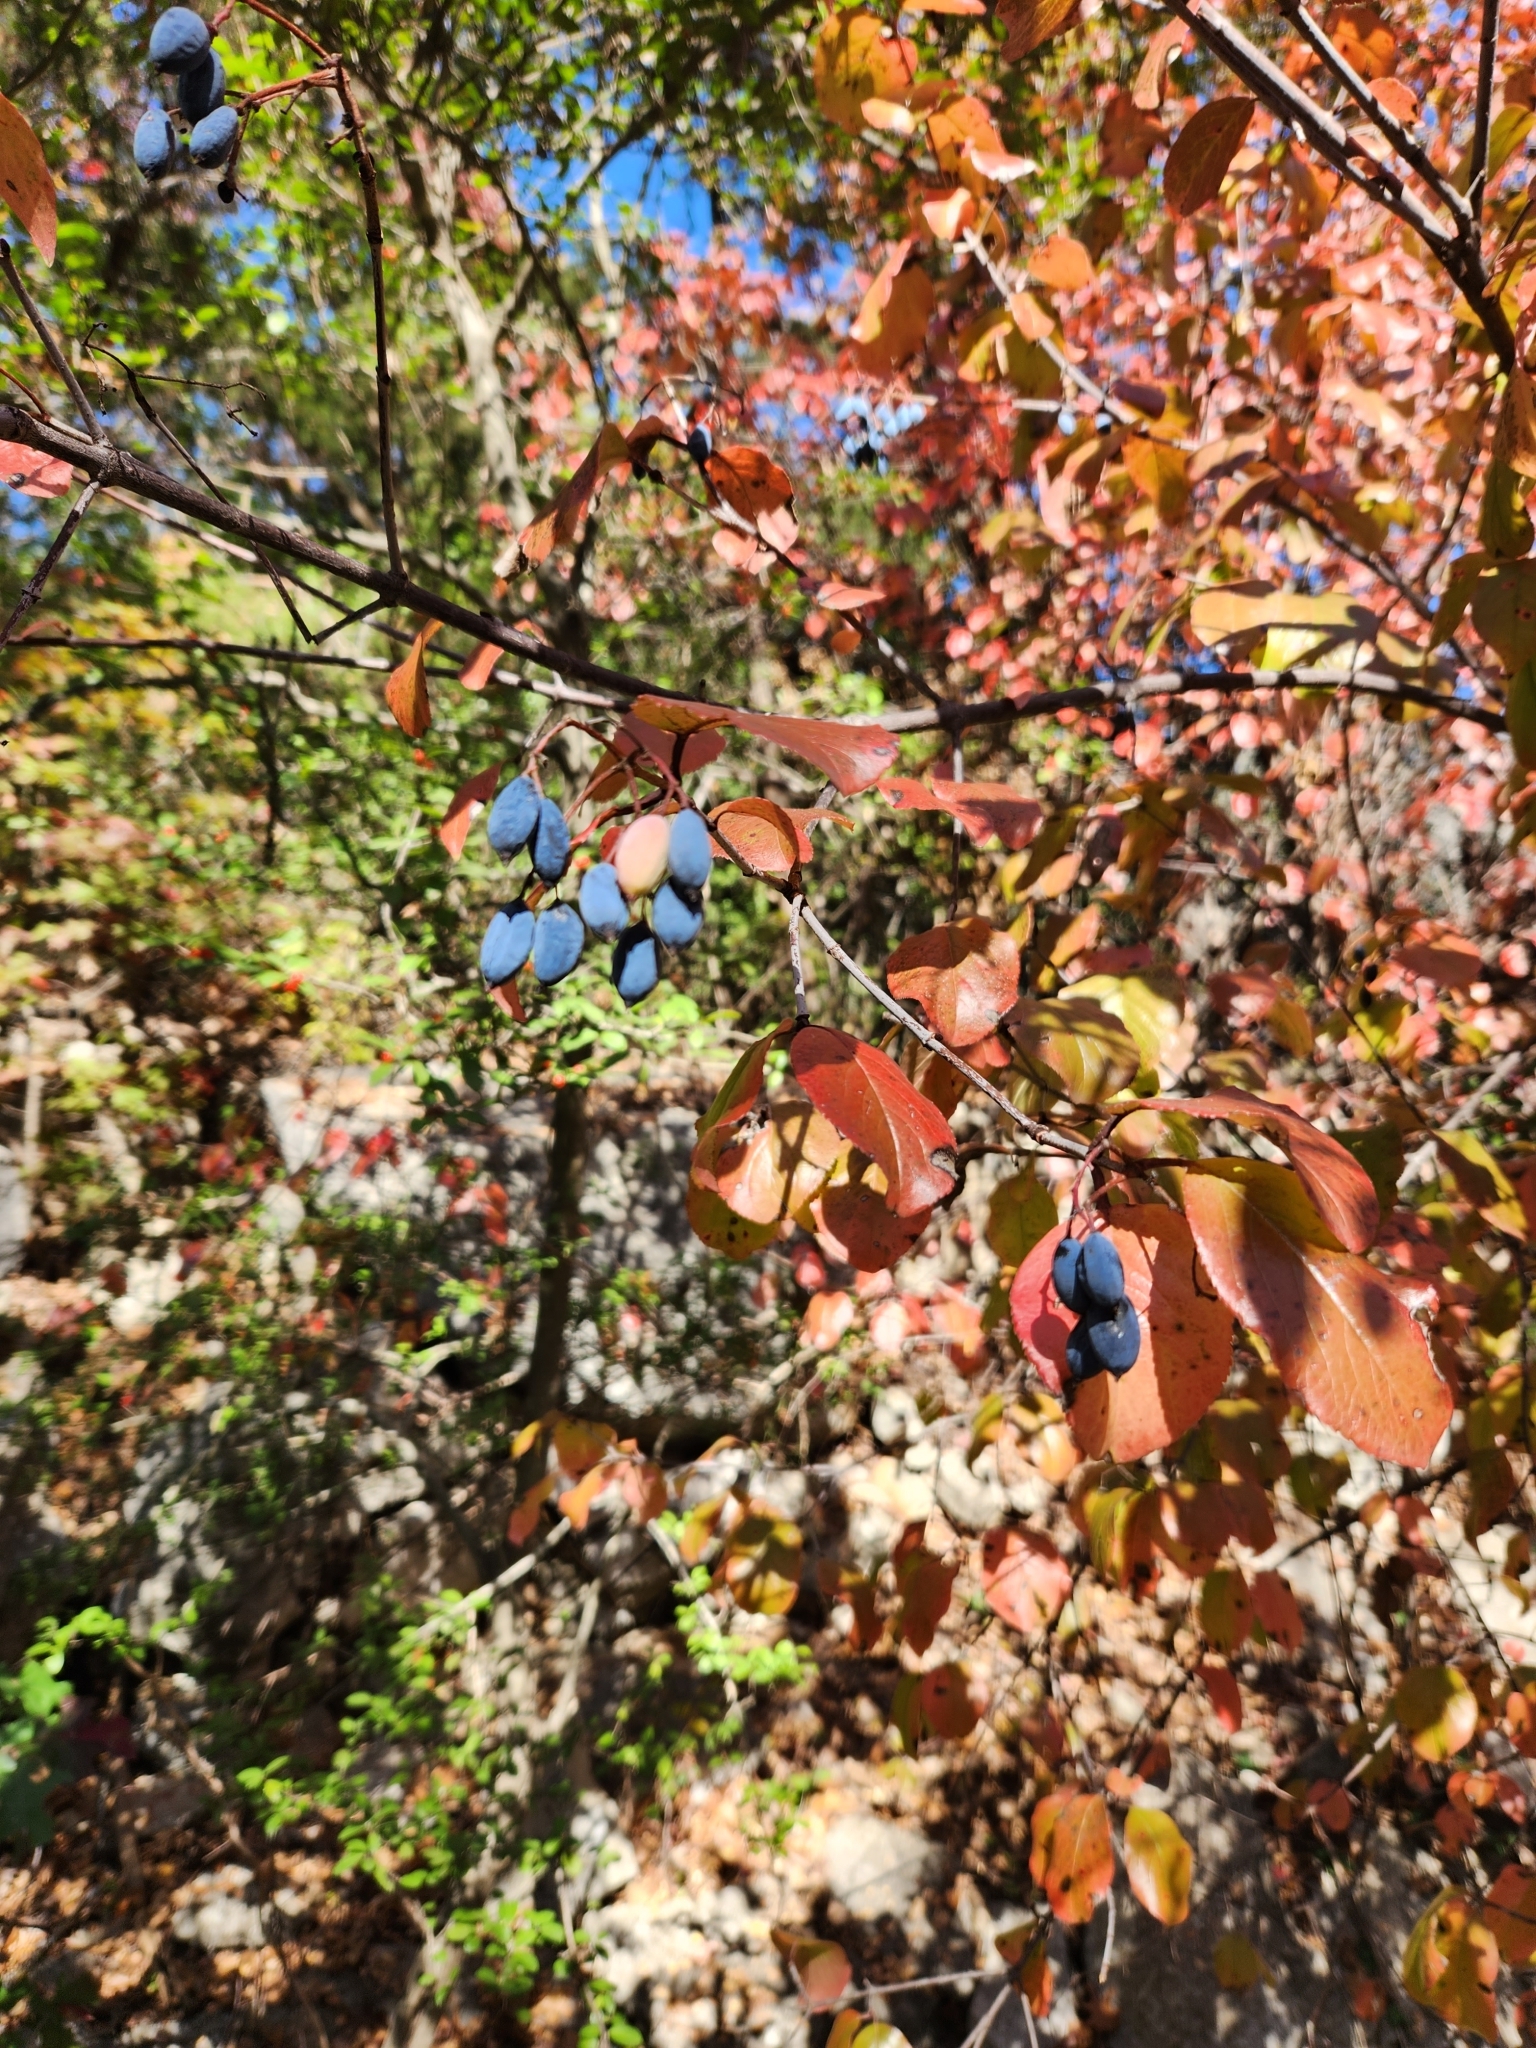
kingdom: Plantae
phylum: Tracheophyta
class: Magnoliopsida
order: Dipsacales
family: Viburnaceae
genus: Viburnum
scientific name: Viburnum rufidulum
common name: Blue haw
